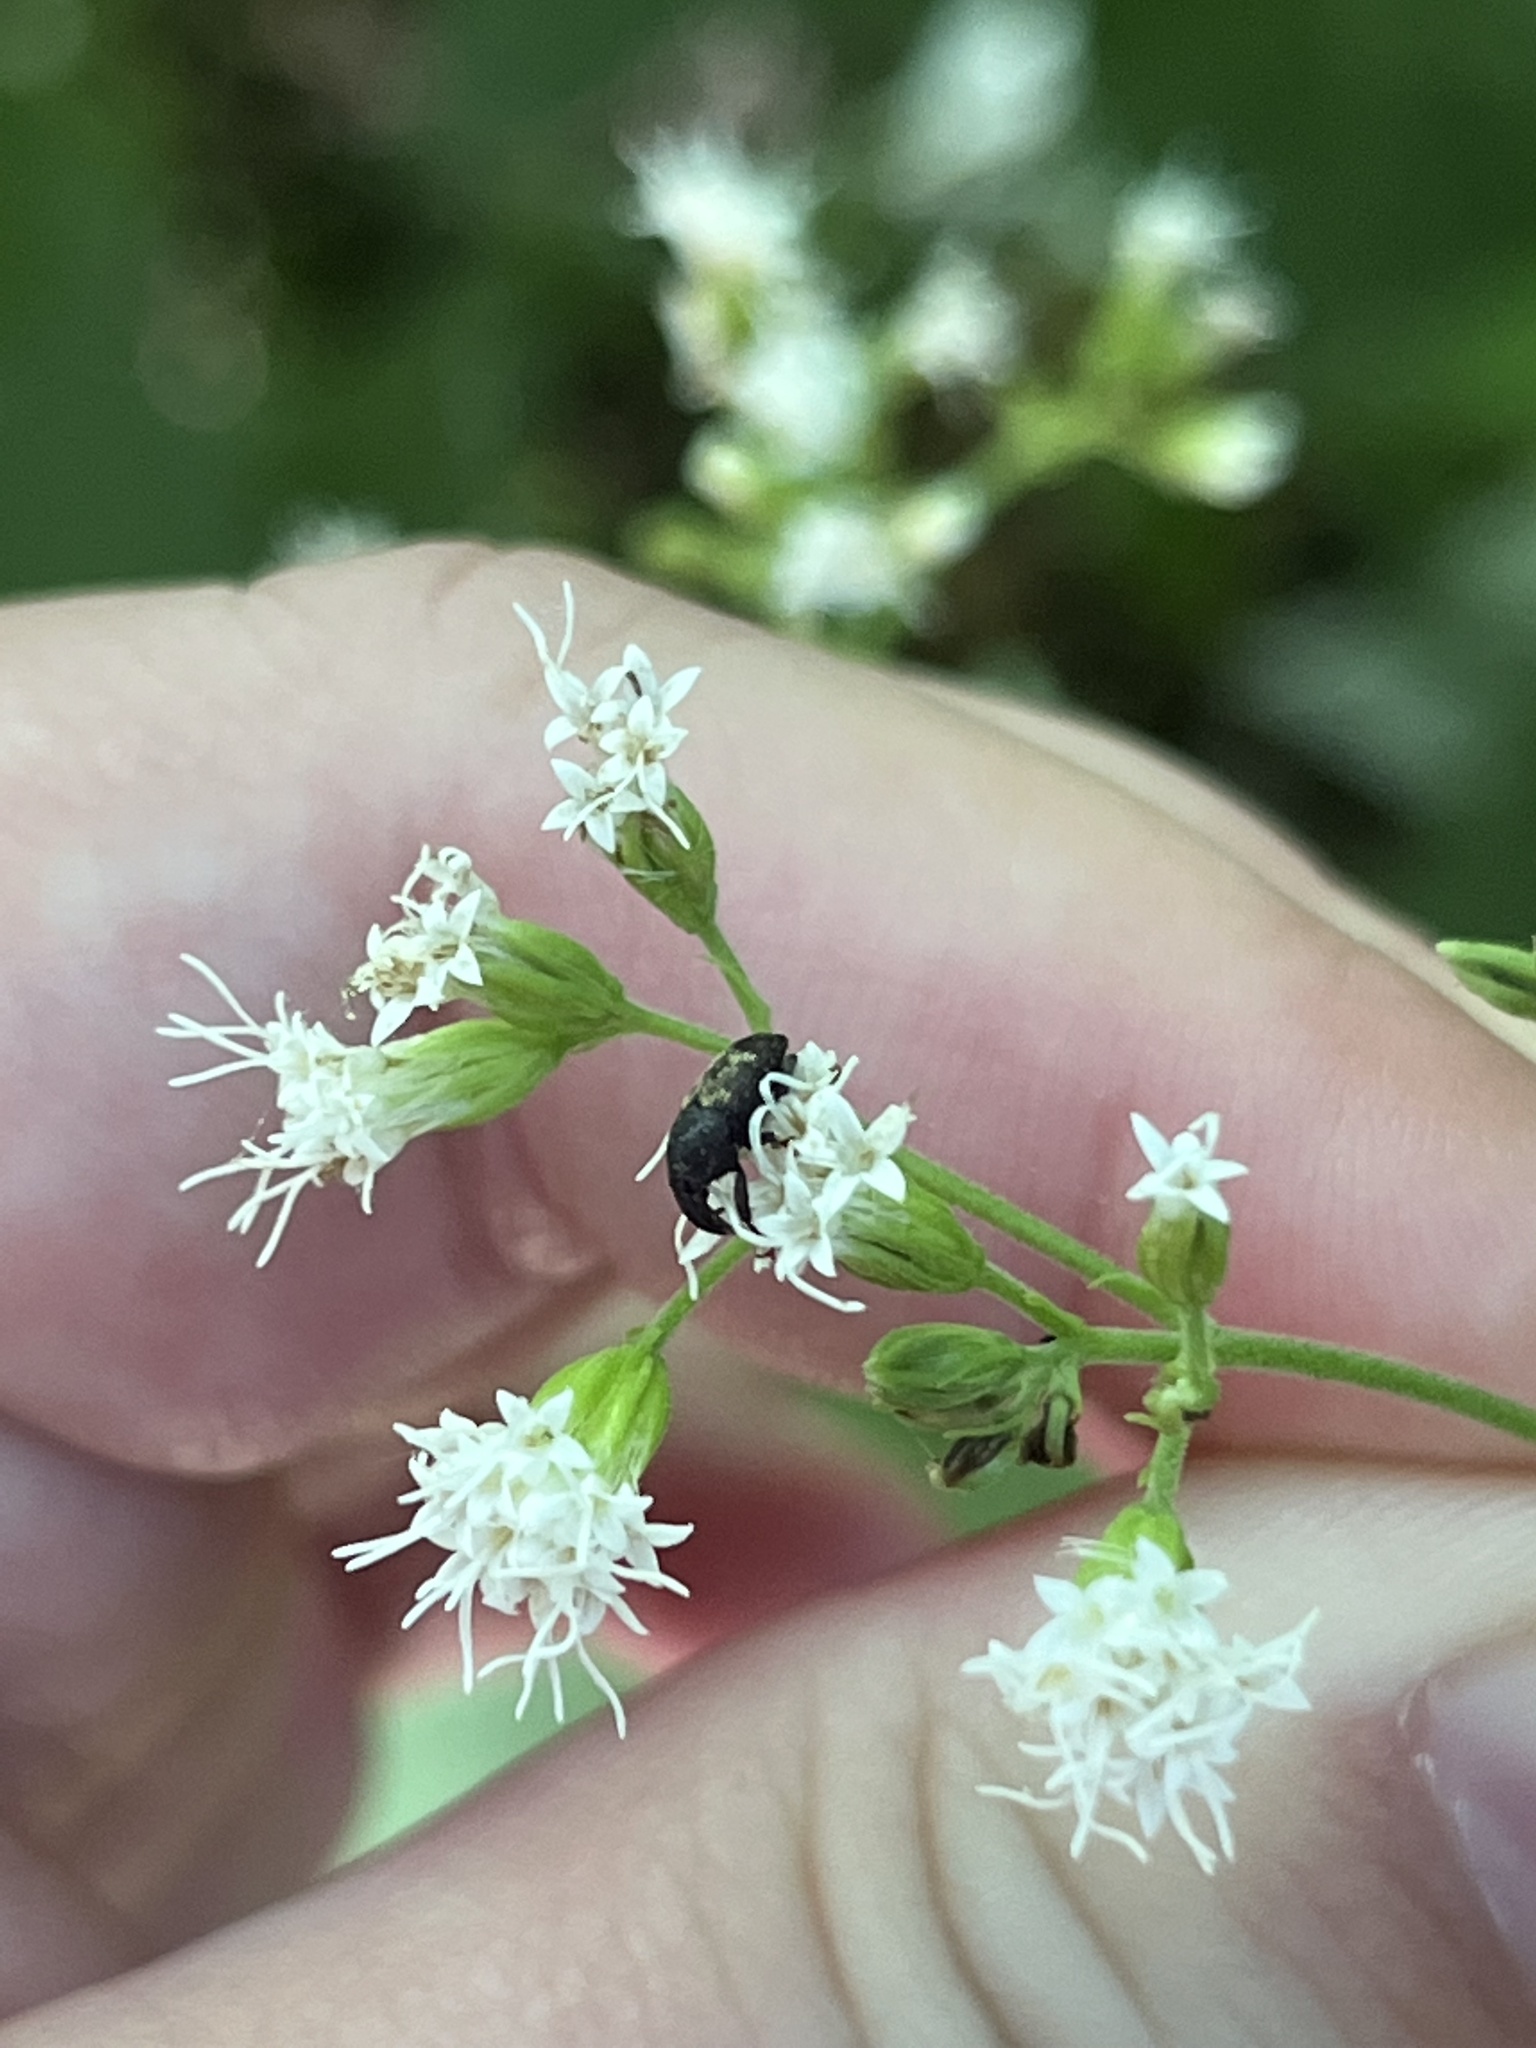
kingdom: Animalia
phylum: Arthropoda
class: Insecta
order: Coleoptera
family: Curculionidae
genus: Glyptobaris
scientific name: Glyptobaris lecontei
